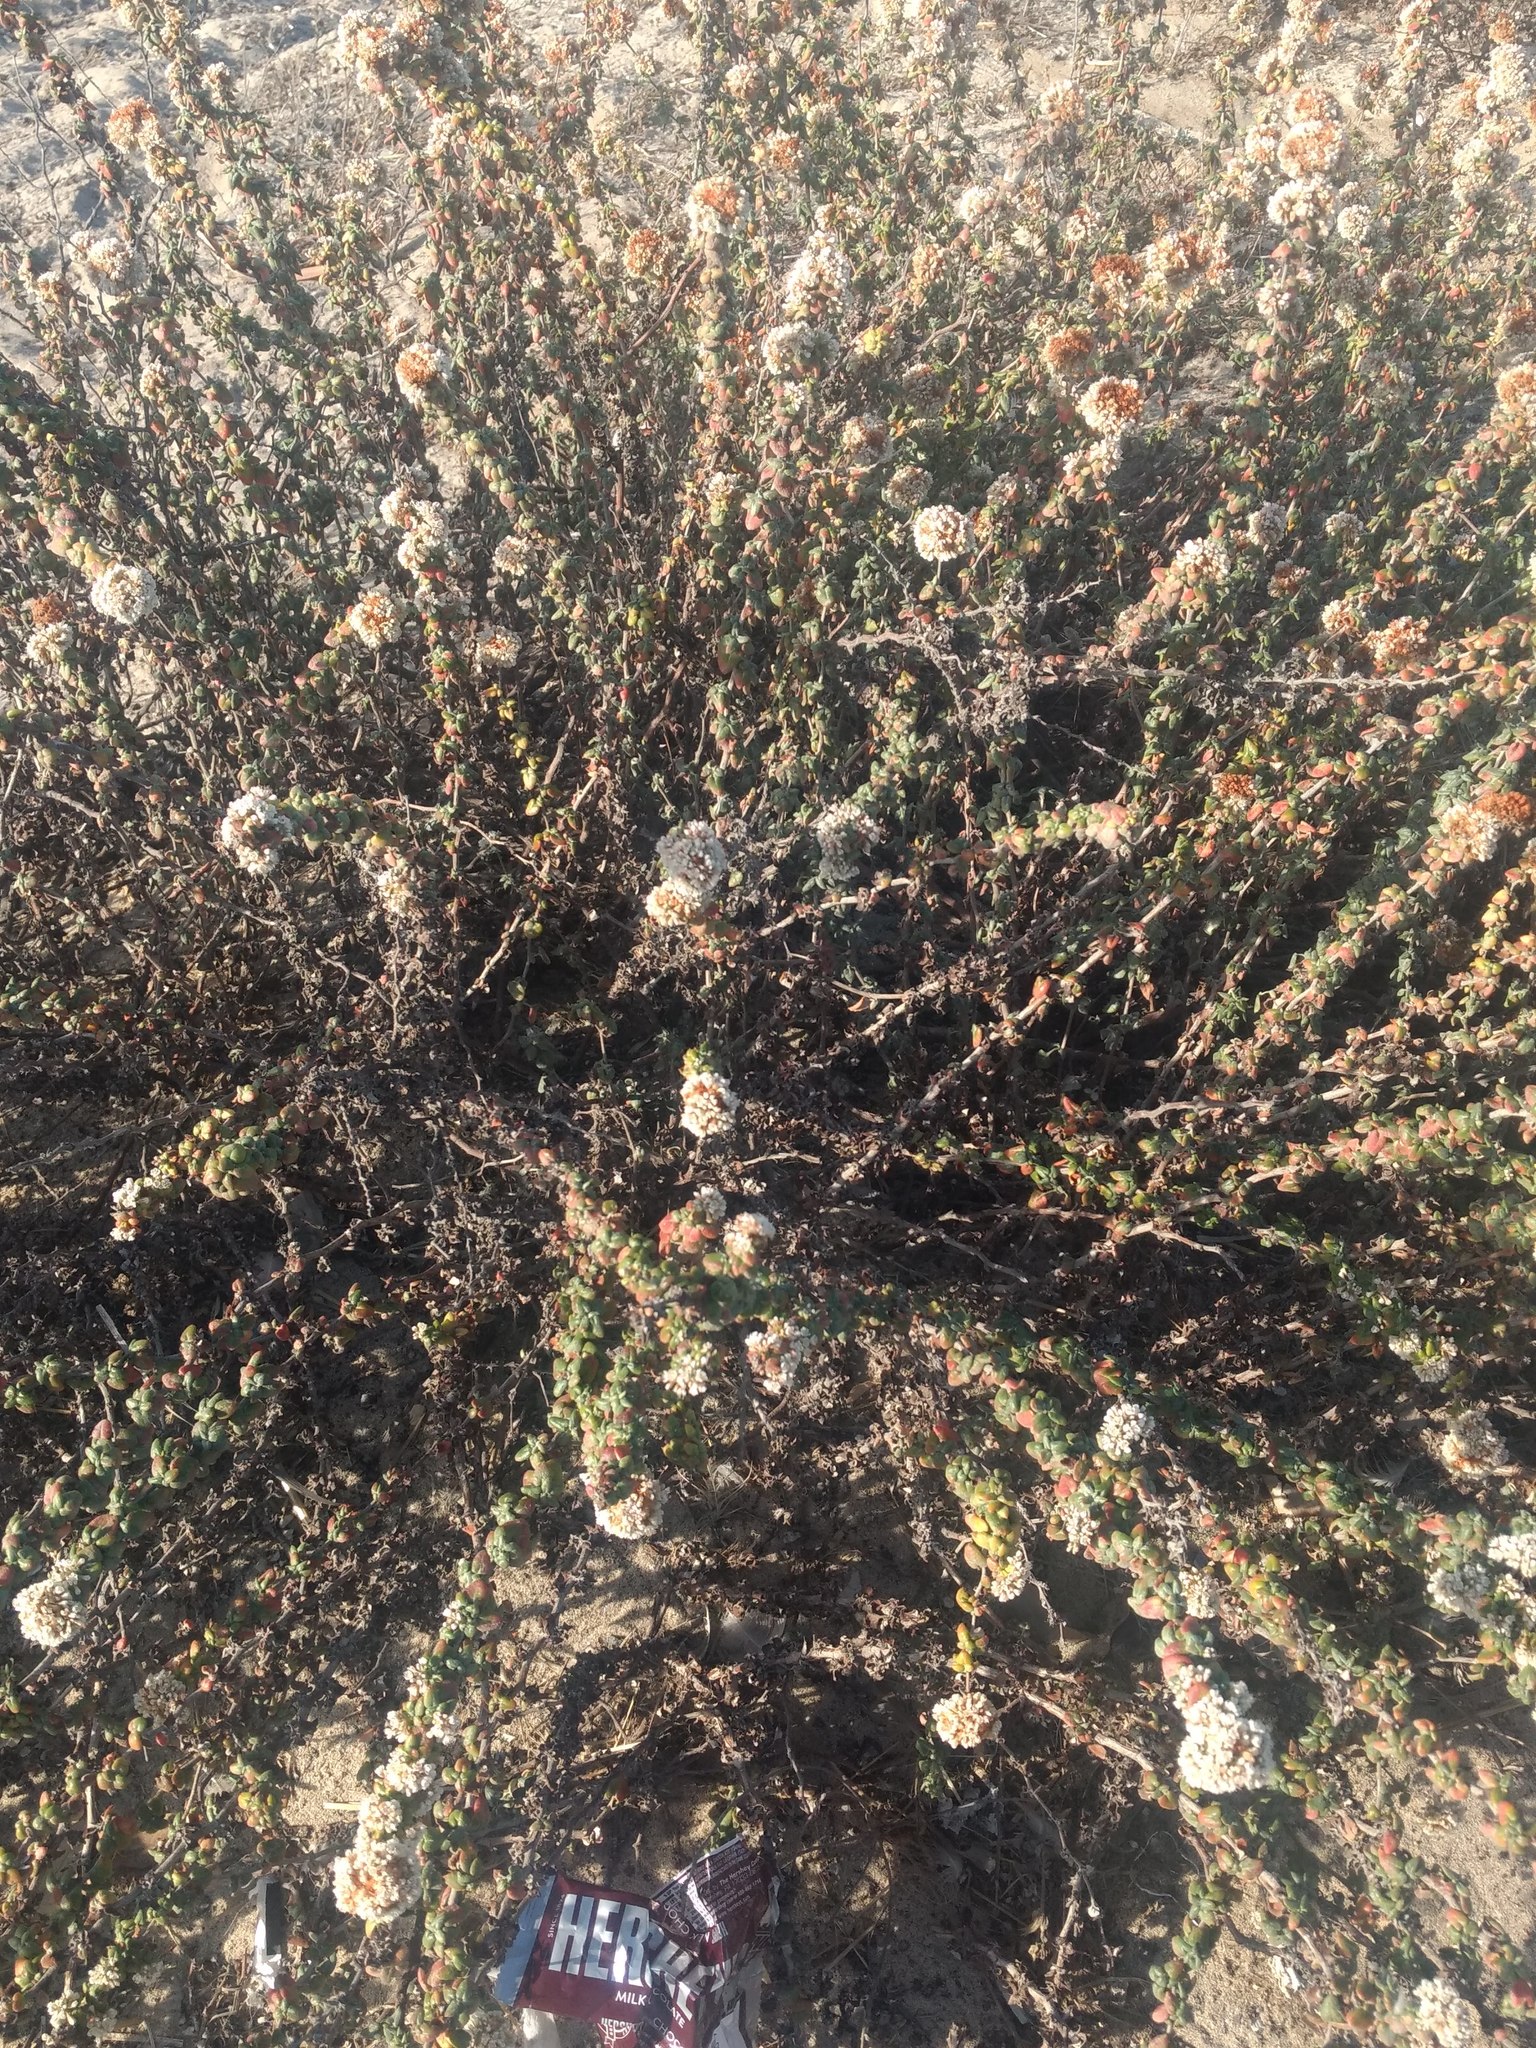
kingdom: Plantae
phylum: Tracheophyta
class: Magnoliopsida
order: Caryophyllales
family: Polygonaceae
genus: Eriogonum
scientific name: Eriogonum parvifolium
